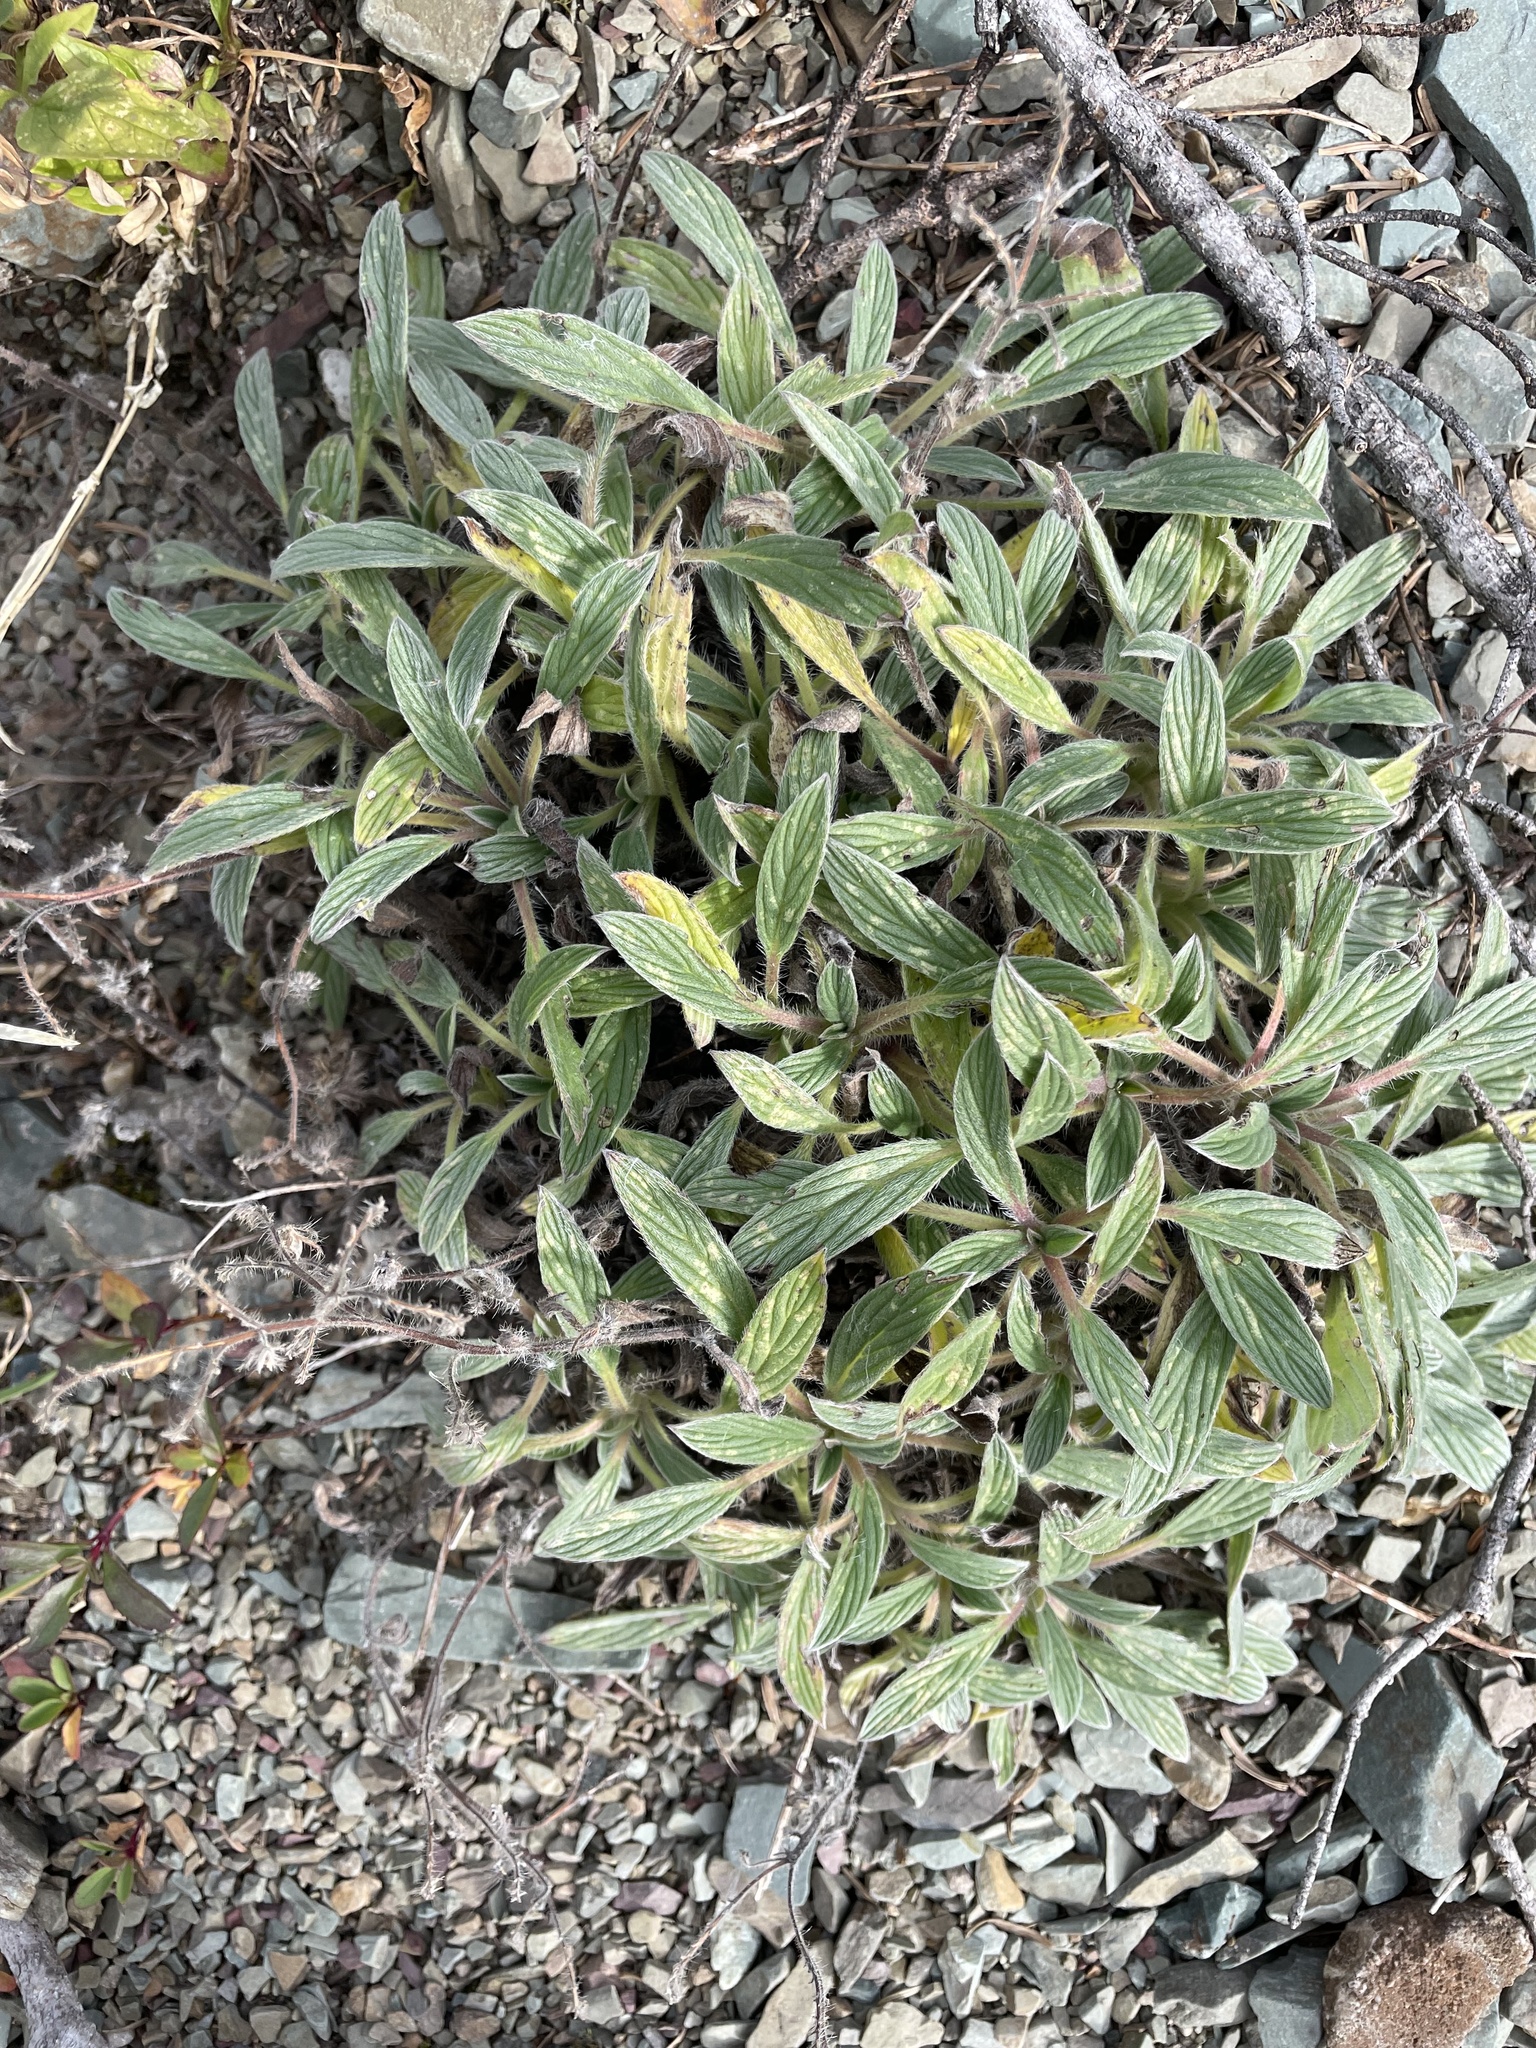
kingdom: Plantae
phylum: Tracheophyta
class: Magnoliopsida
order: Boraginales
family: Hydrophyllaceae
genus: Phacelia
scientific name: Phacelia hastata
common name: Silver-leaved phacelia
